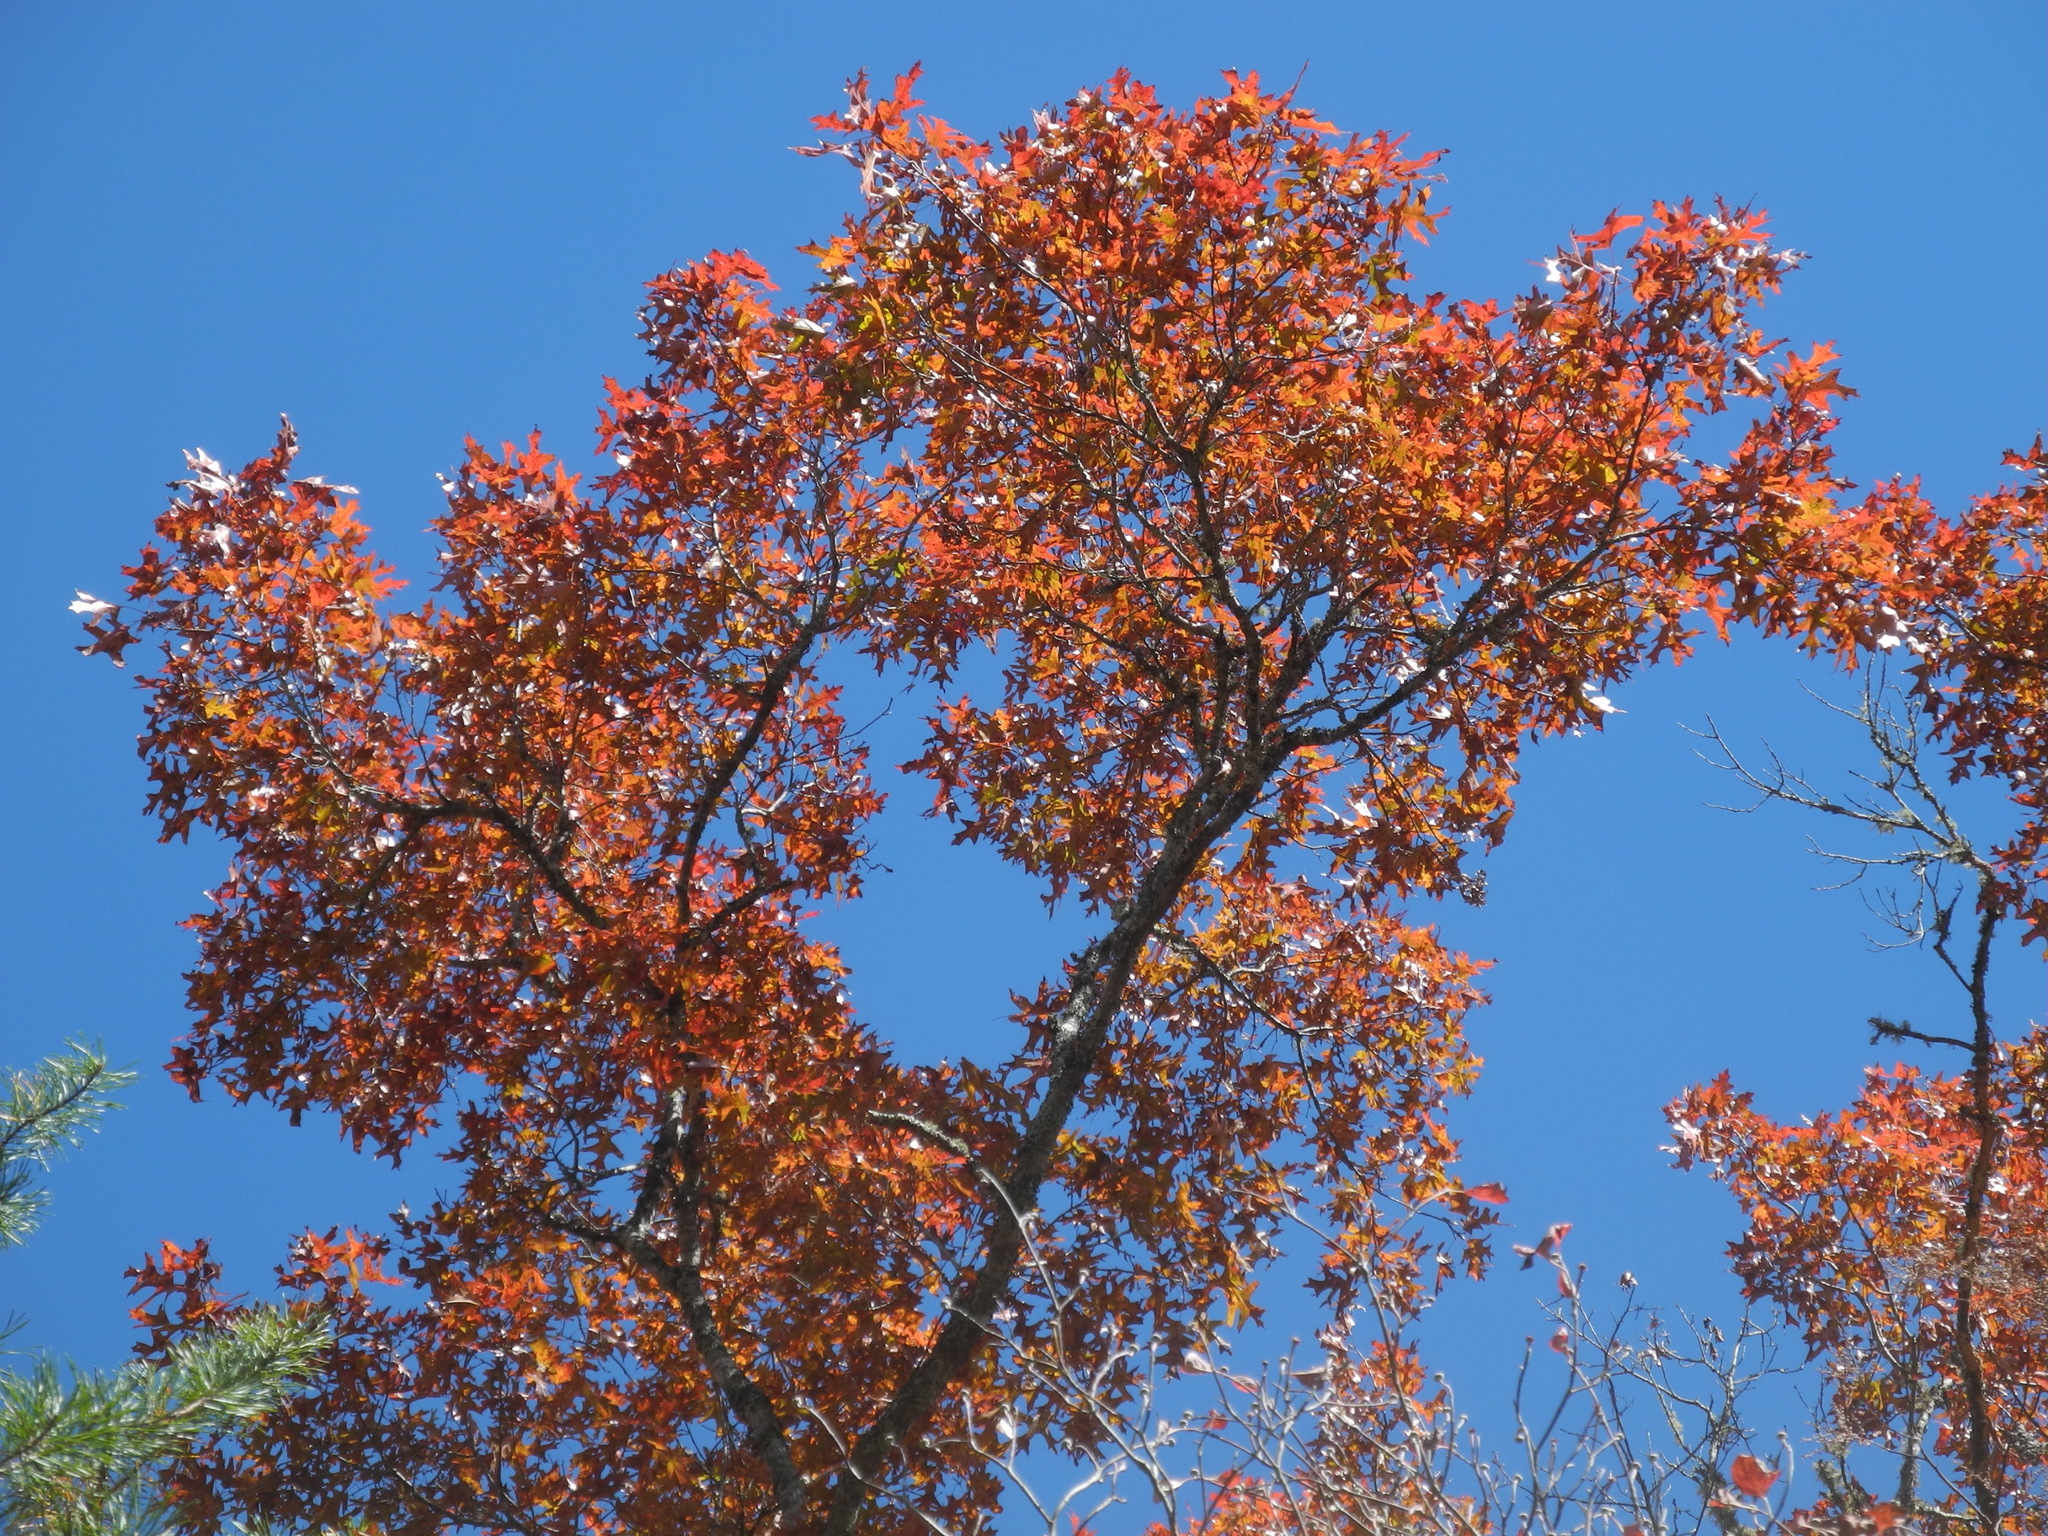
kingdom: Plantae
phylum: Tracheophyta
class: Magnoliopsida
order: Fagales
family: Fagaceae
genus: Quercus
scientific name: Quercus coccinea
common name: Scarlet oak
